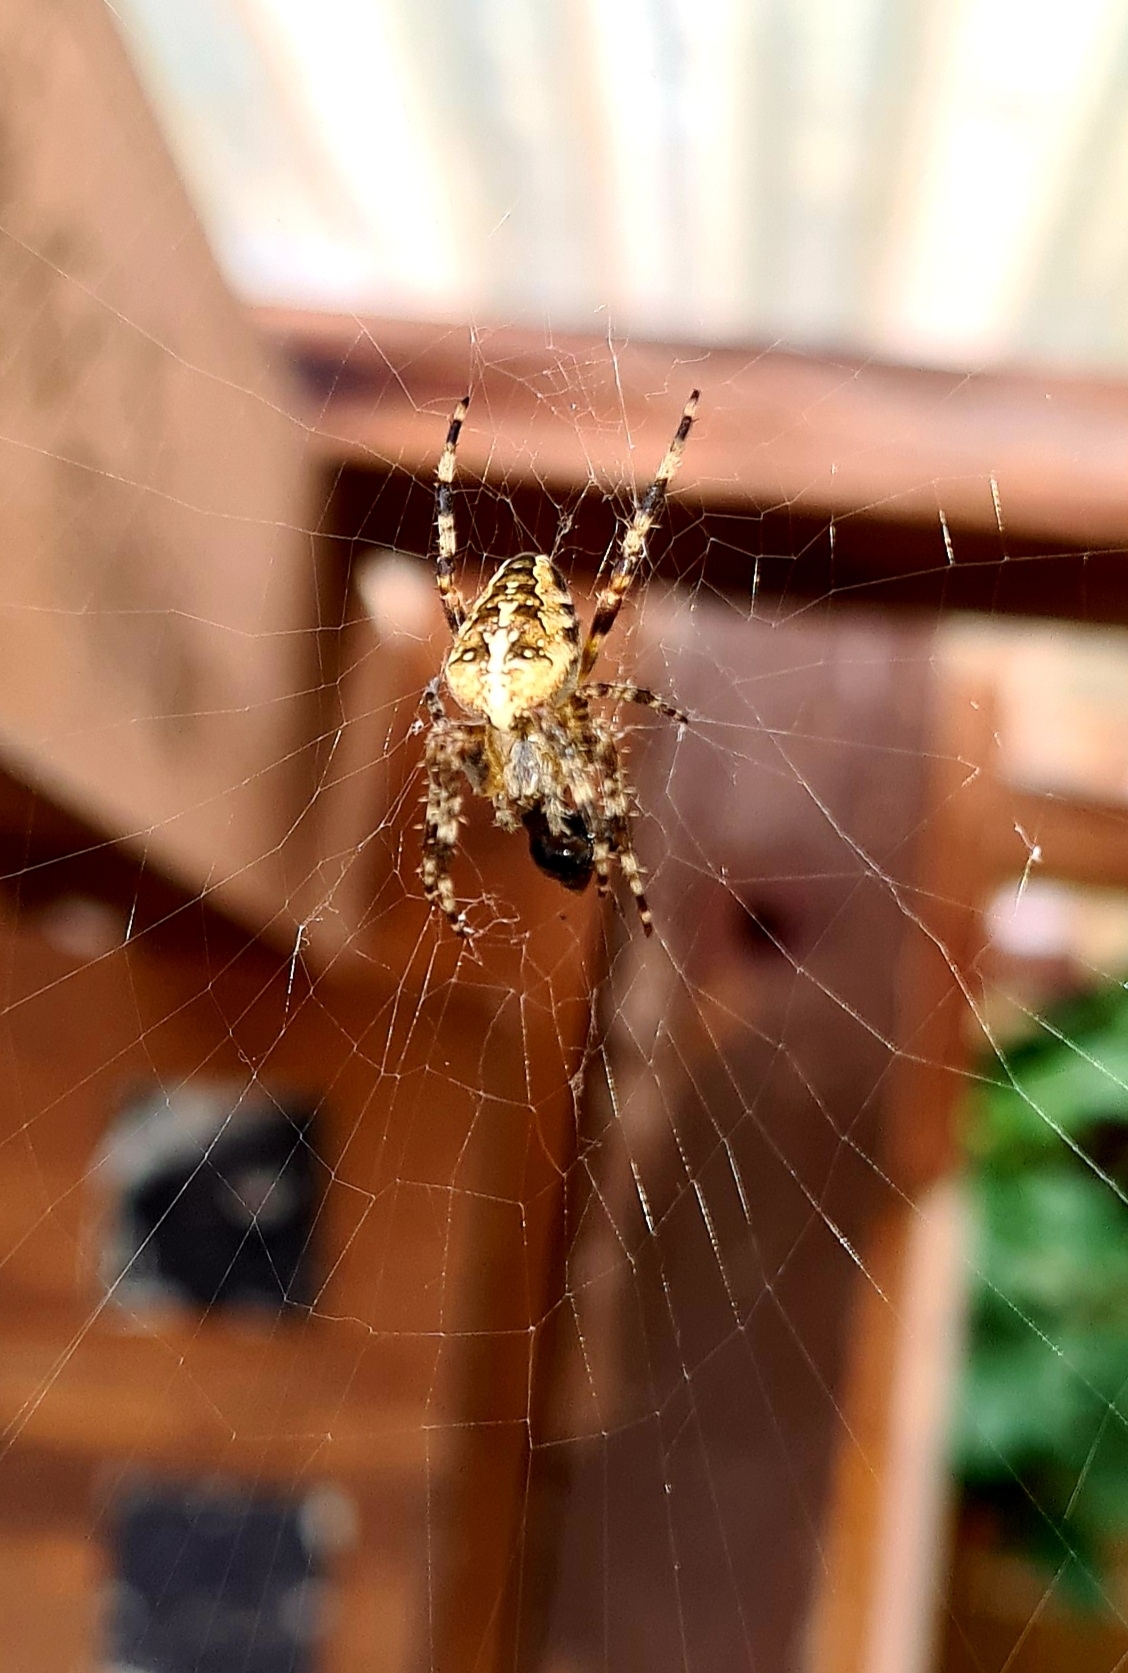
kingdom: Animalia
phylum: Arthropoda
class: Arachnida
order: Araneae
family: Araneidae
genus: Araneus
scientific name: Araneus diadematus
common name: Cross orbweaver
